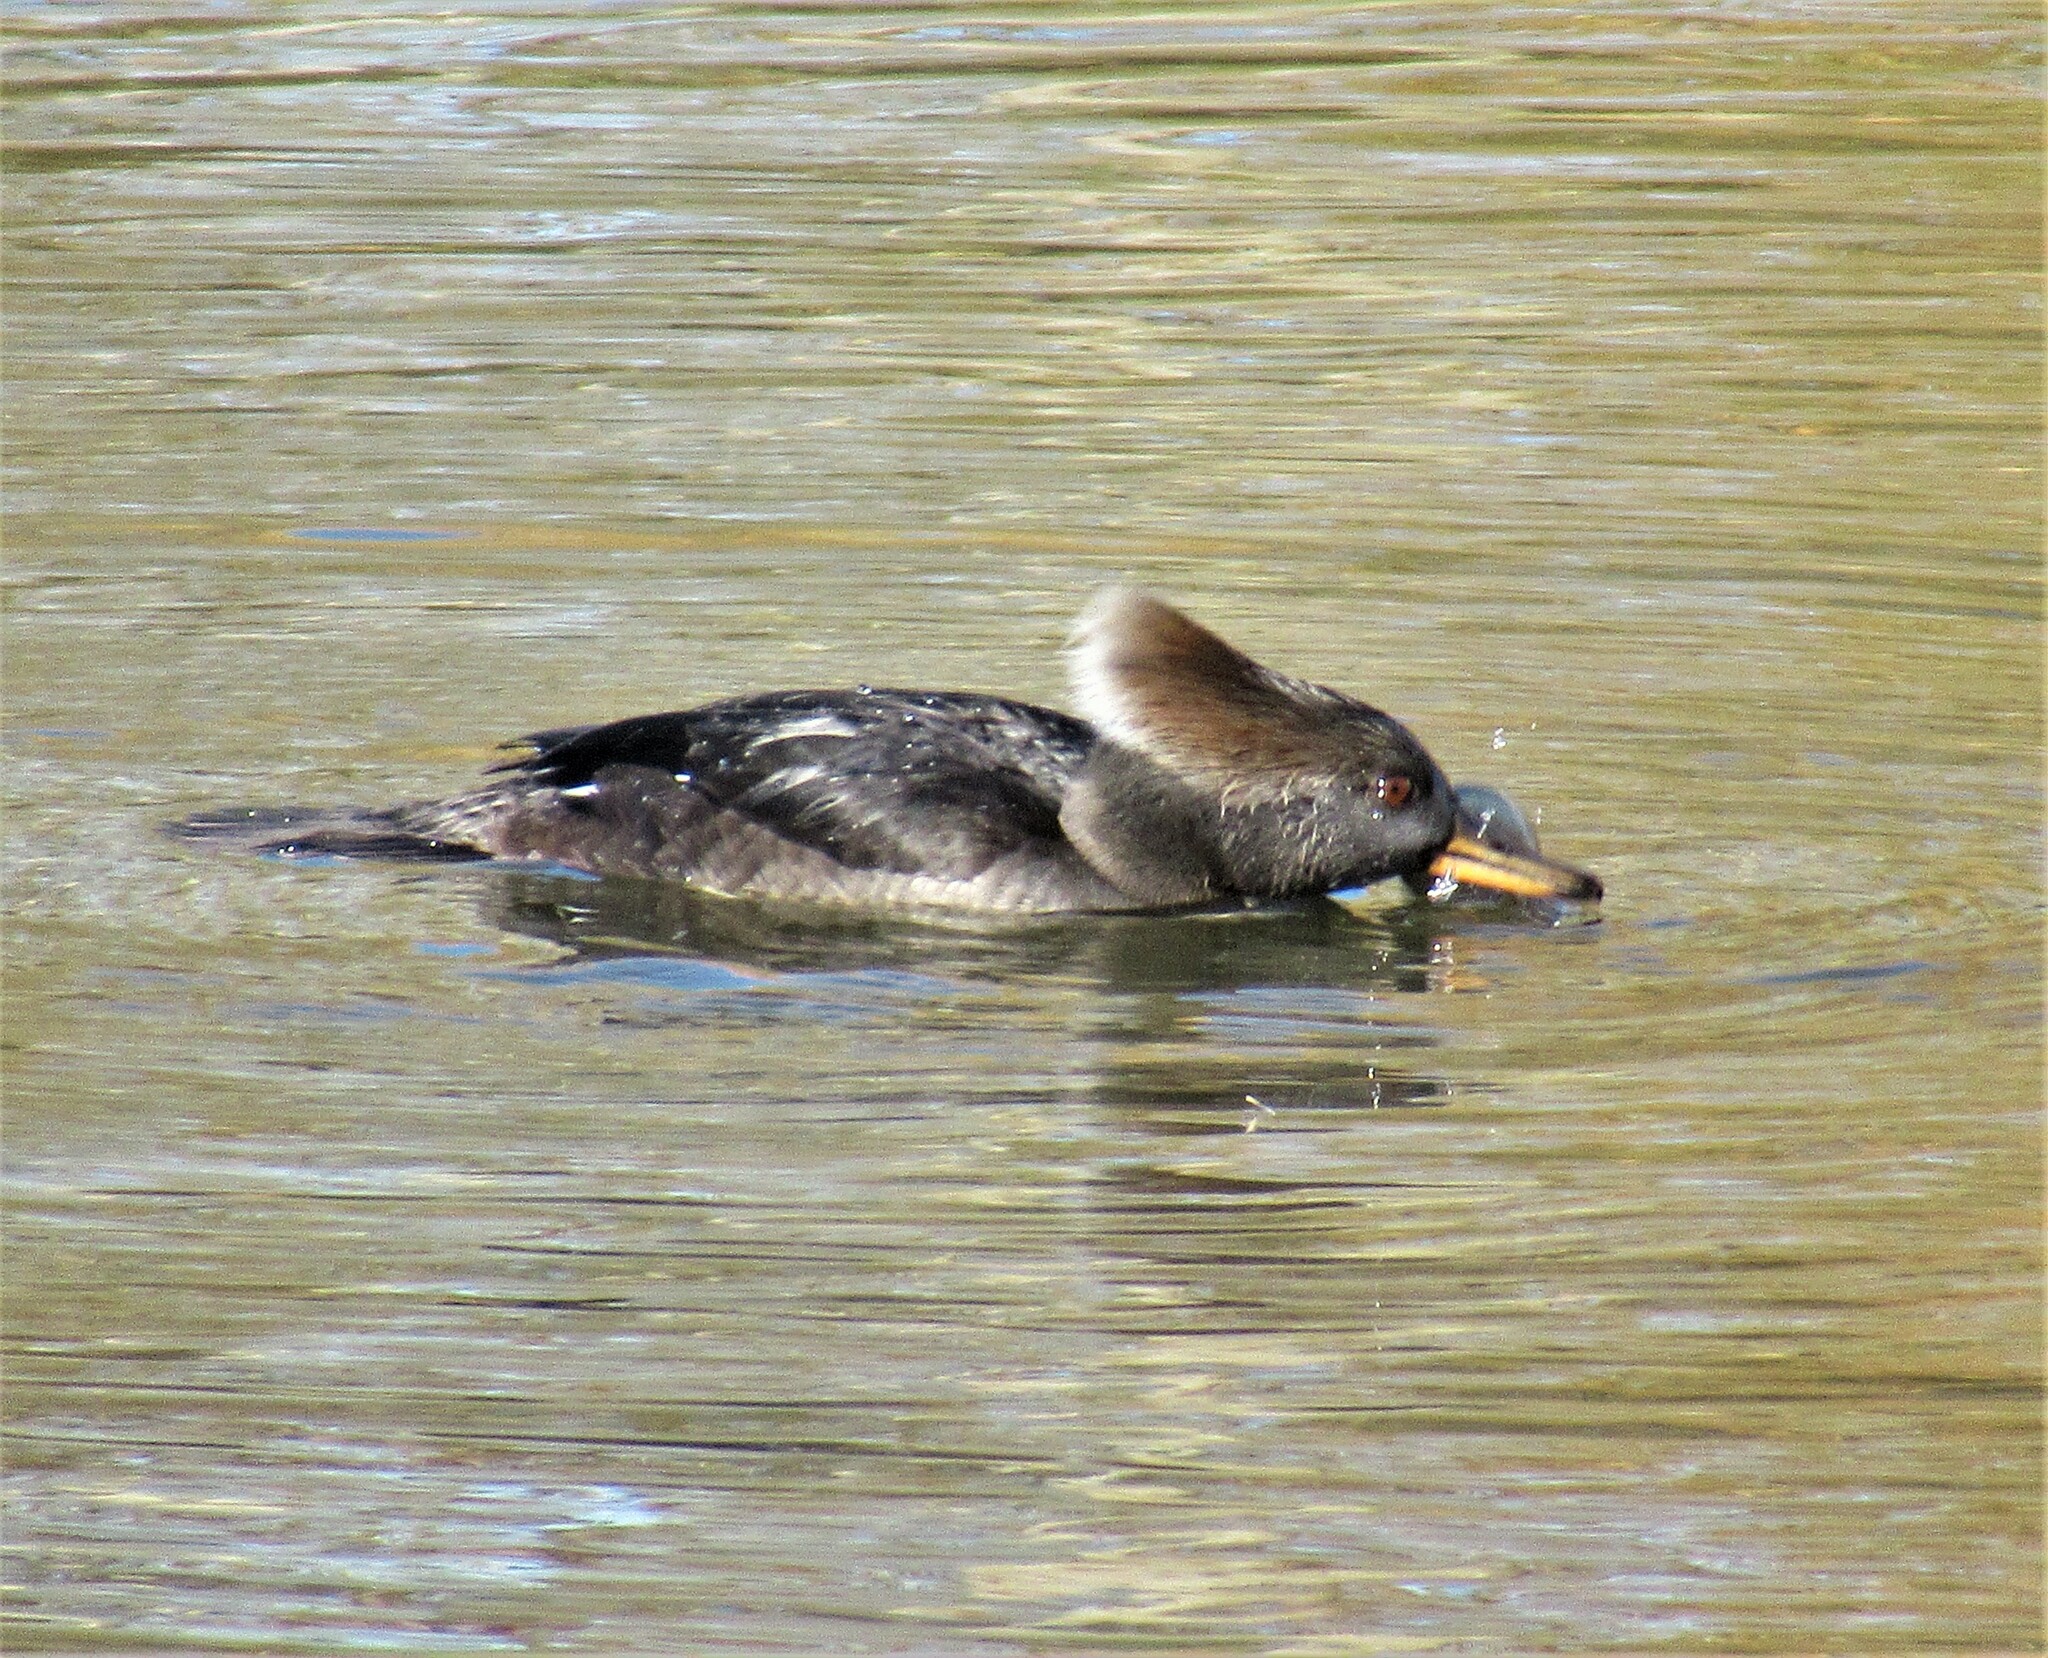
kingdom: Animalia
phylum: Chordata
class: Aves
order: Anseriformes
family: Anatidae
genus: Lophodytes
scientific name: Lophodytes cucullatus
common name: Hooded merganser
